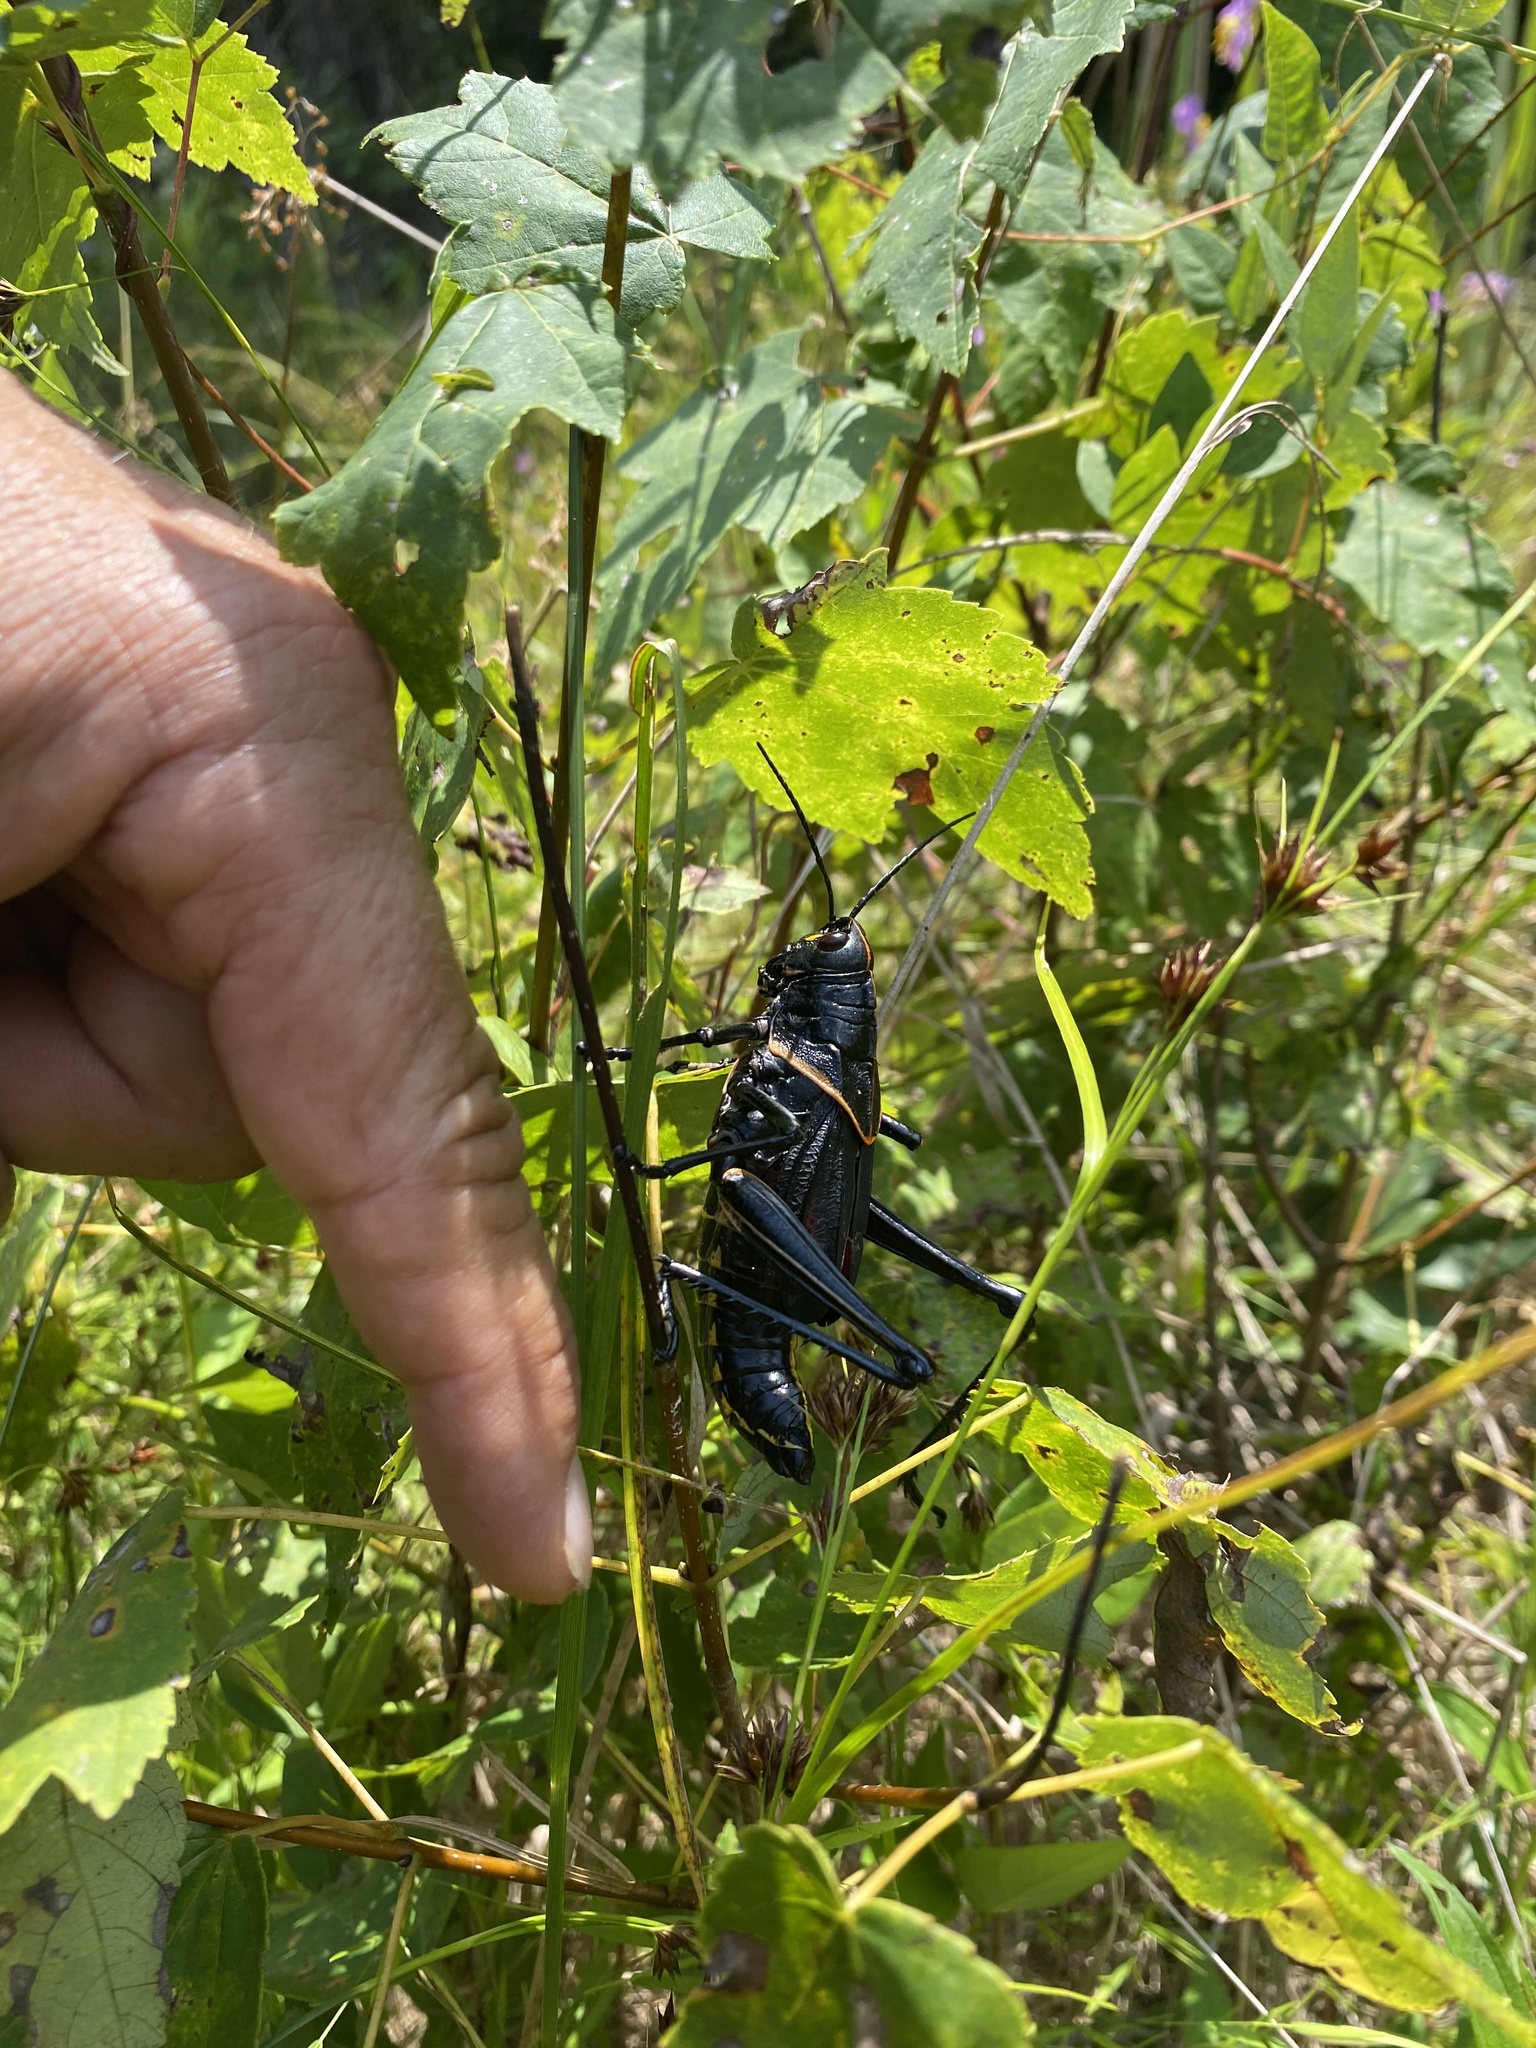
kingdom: Animalia
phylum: Arthropoda
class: Insecta
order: Orthoptera
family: Romaleidae
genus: Romalea
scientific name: Romalea microptera
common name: Eastern lubber grasshopper
